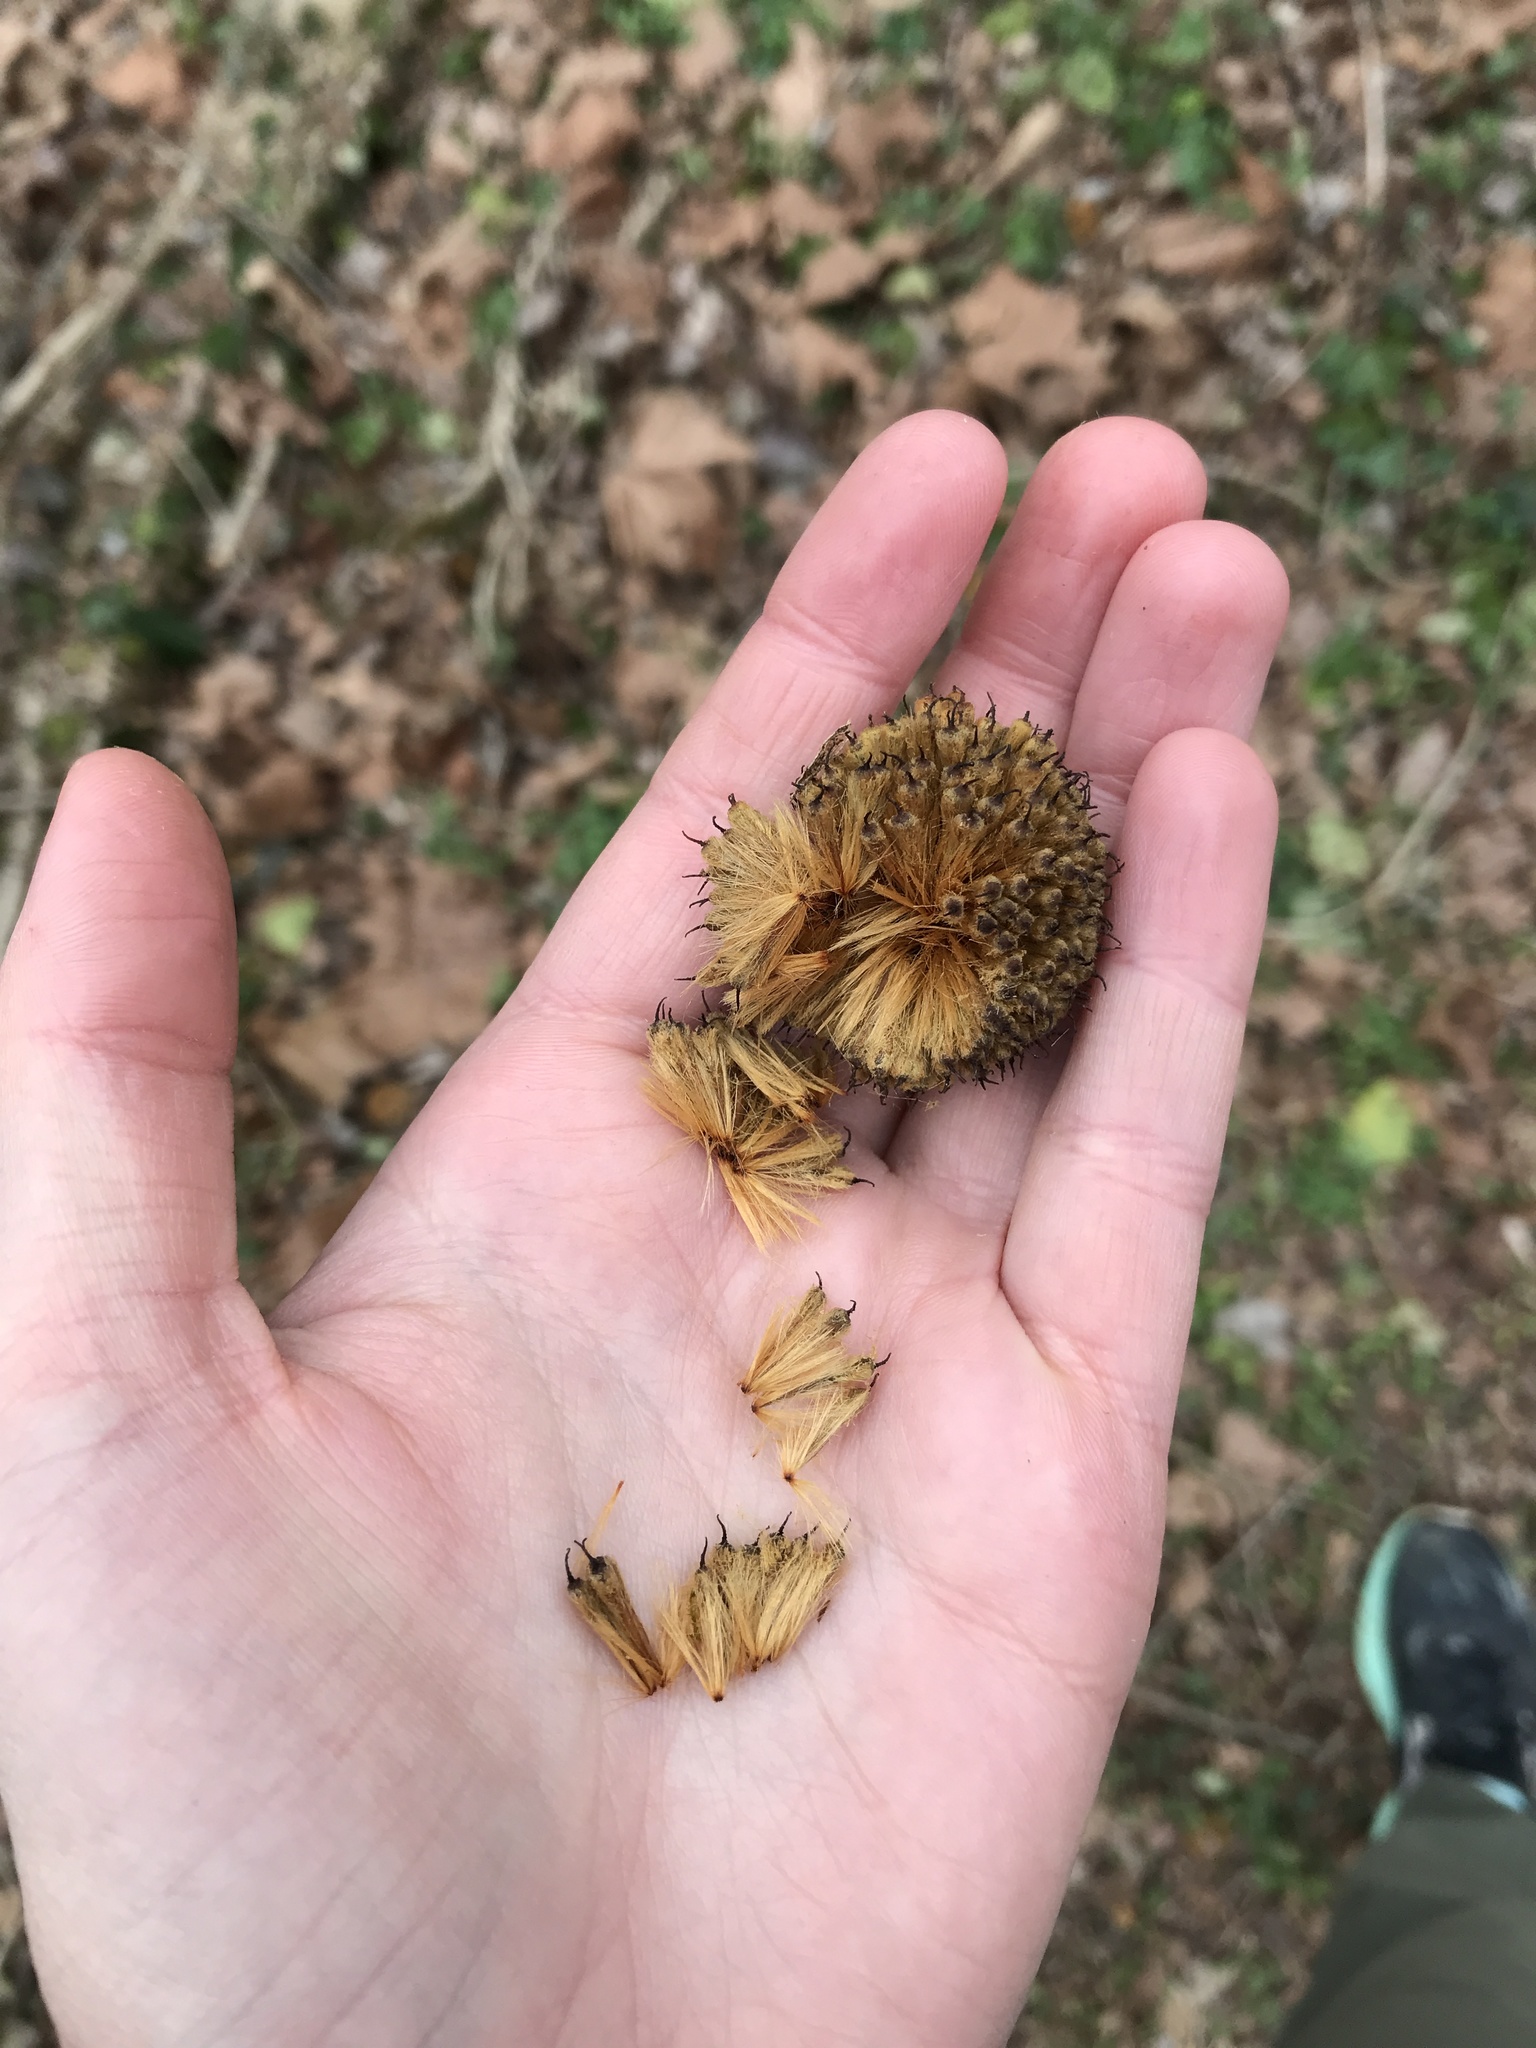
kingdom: Plantae
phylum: Tracheophyta
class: Magnoliopsida
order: Proteales
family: Platanaceae
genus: Platanus
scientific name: Platanus occidentalis
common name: American sycamore
